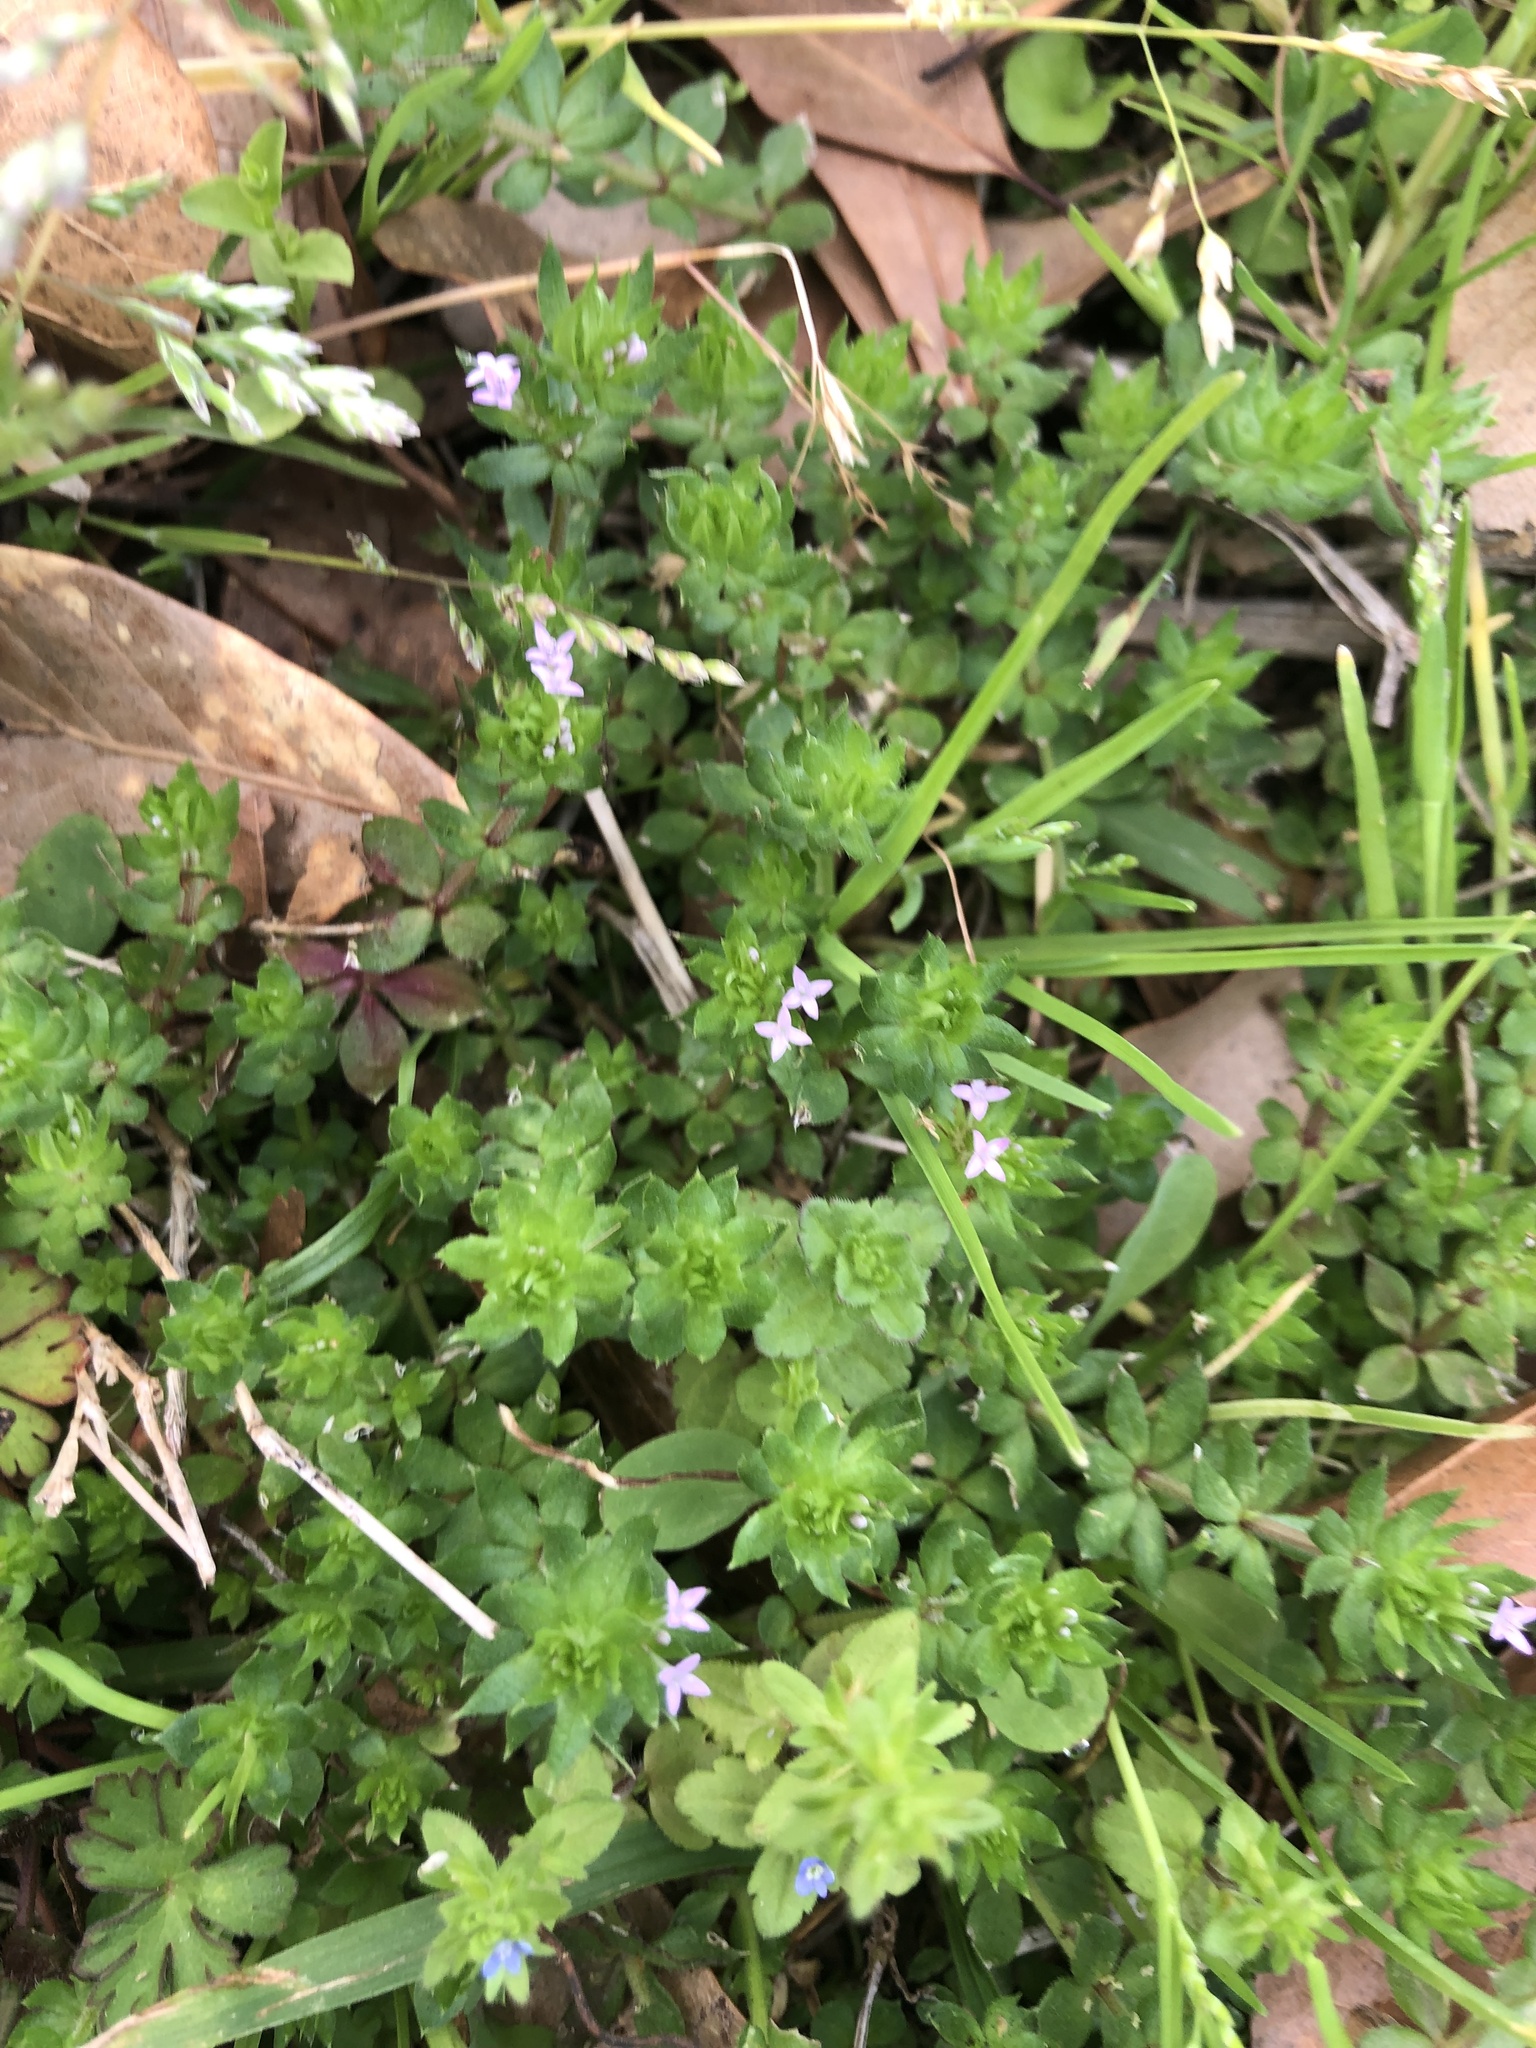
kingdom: Plantae
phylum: Tracheophyta
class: Magnoliopsida
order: Gentianales
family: Rubiaceae
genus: Sherardia
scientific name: Sherardia arvensis
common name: Field madder
